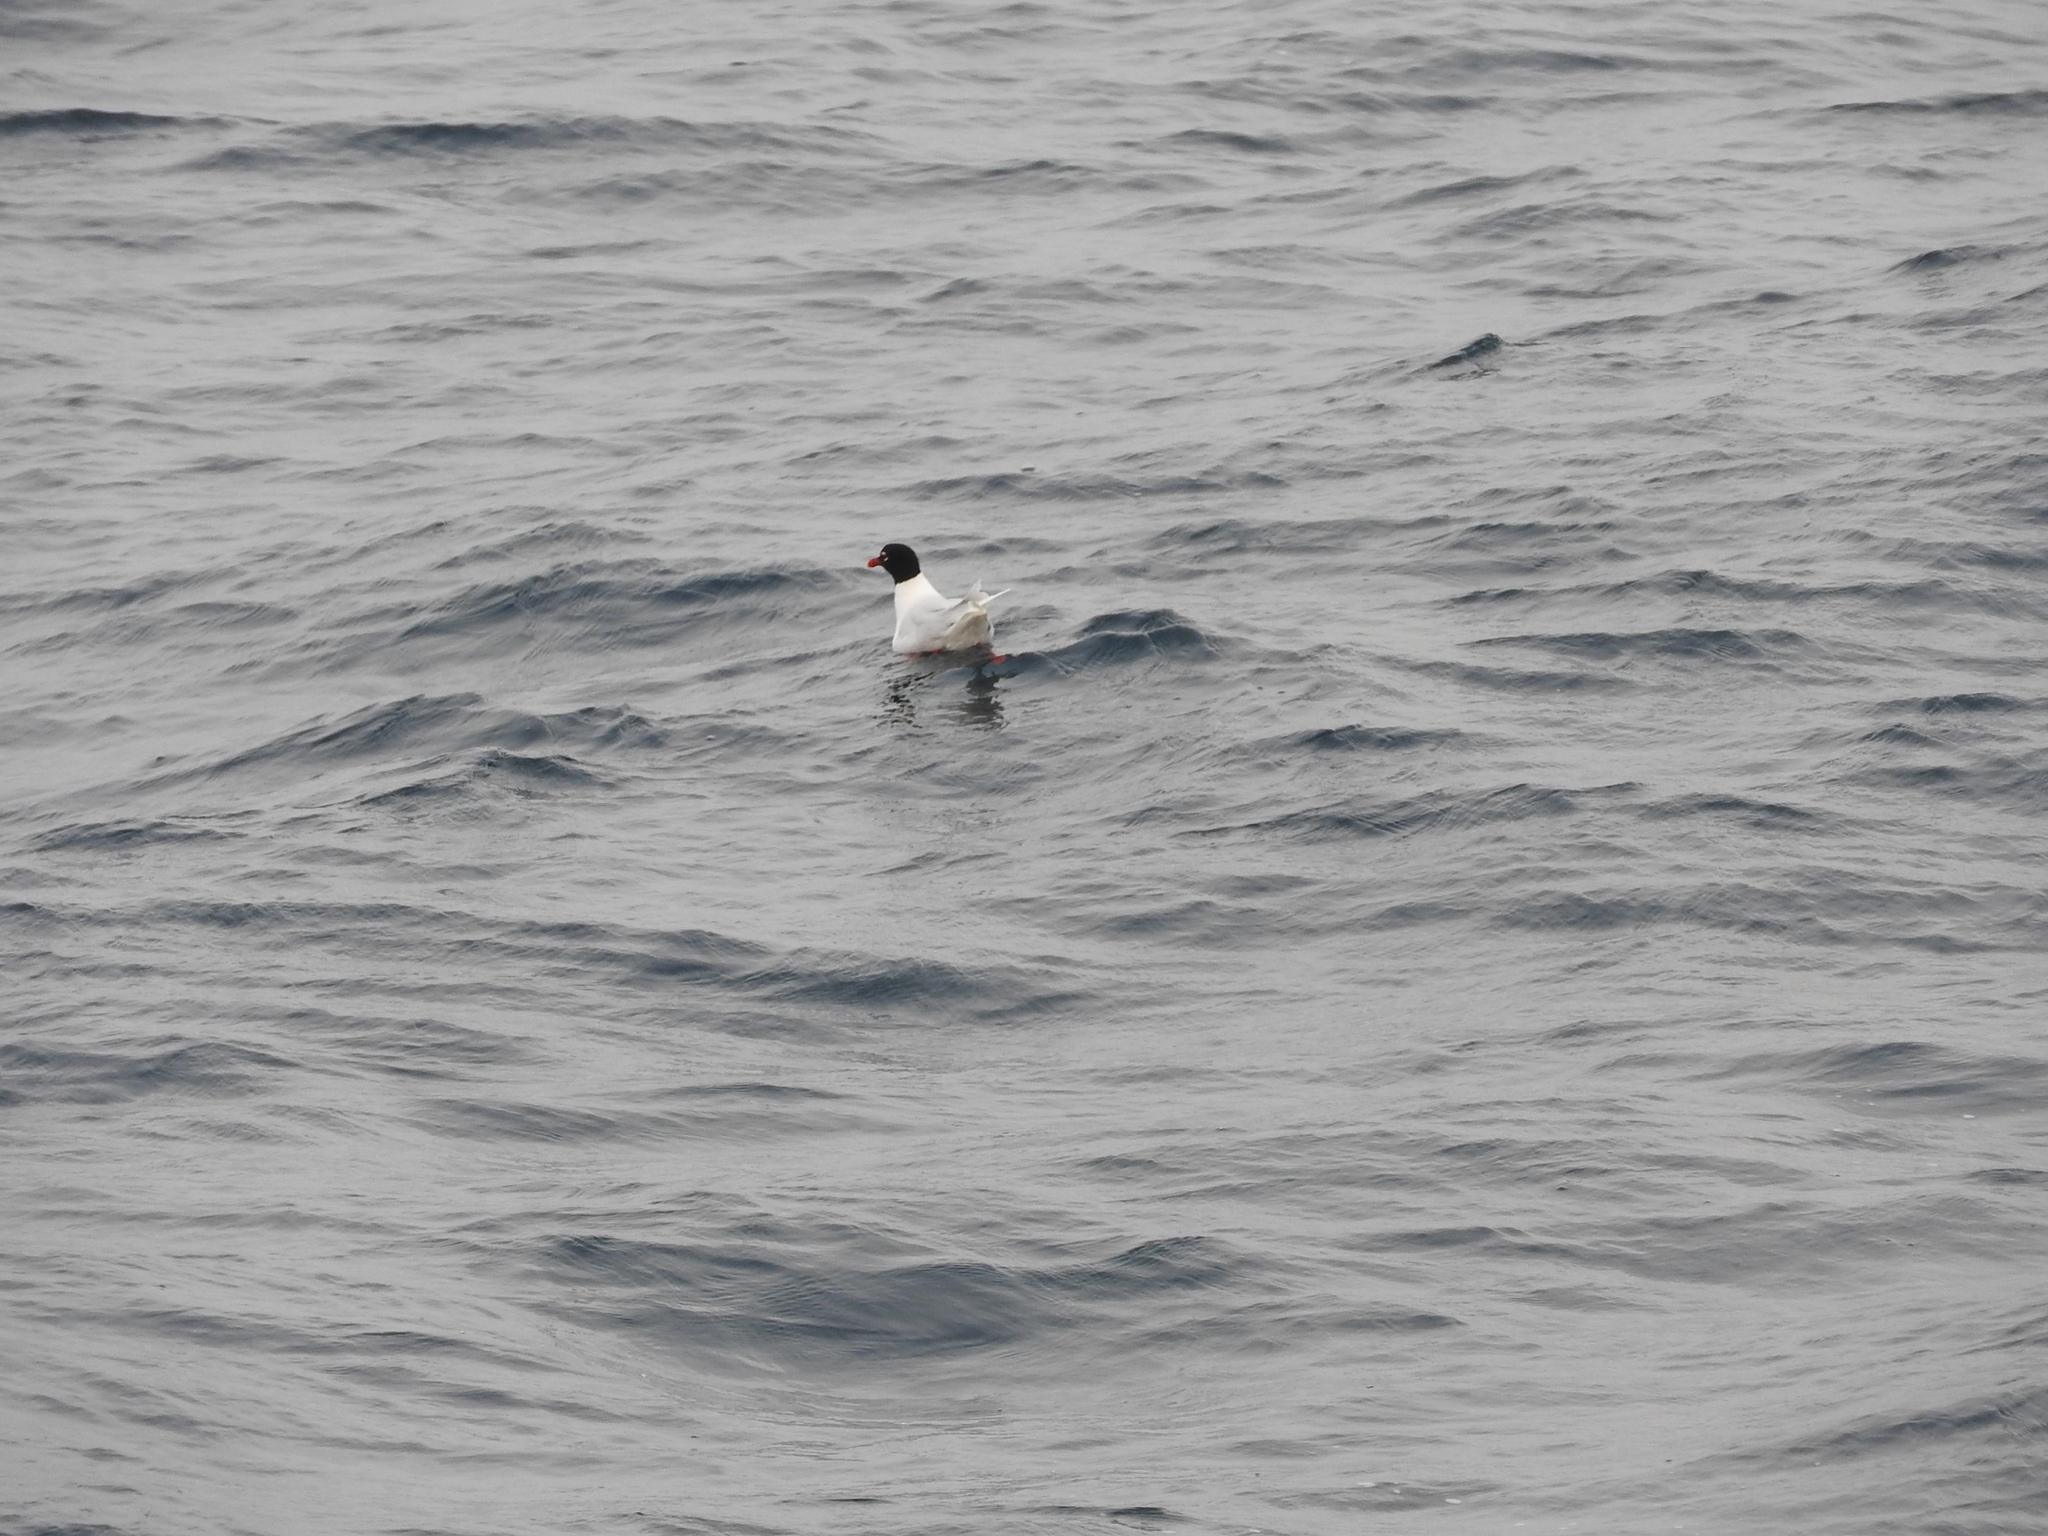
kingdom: Animalia
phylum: Chordata
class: Aves
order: Charadriiformes
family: Laridae
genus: Ichthyaetus
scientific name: Ichthyaetus melanocephalus
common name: Mediterranean gull
